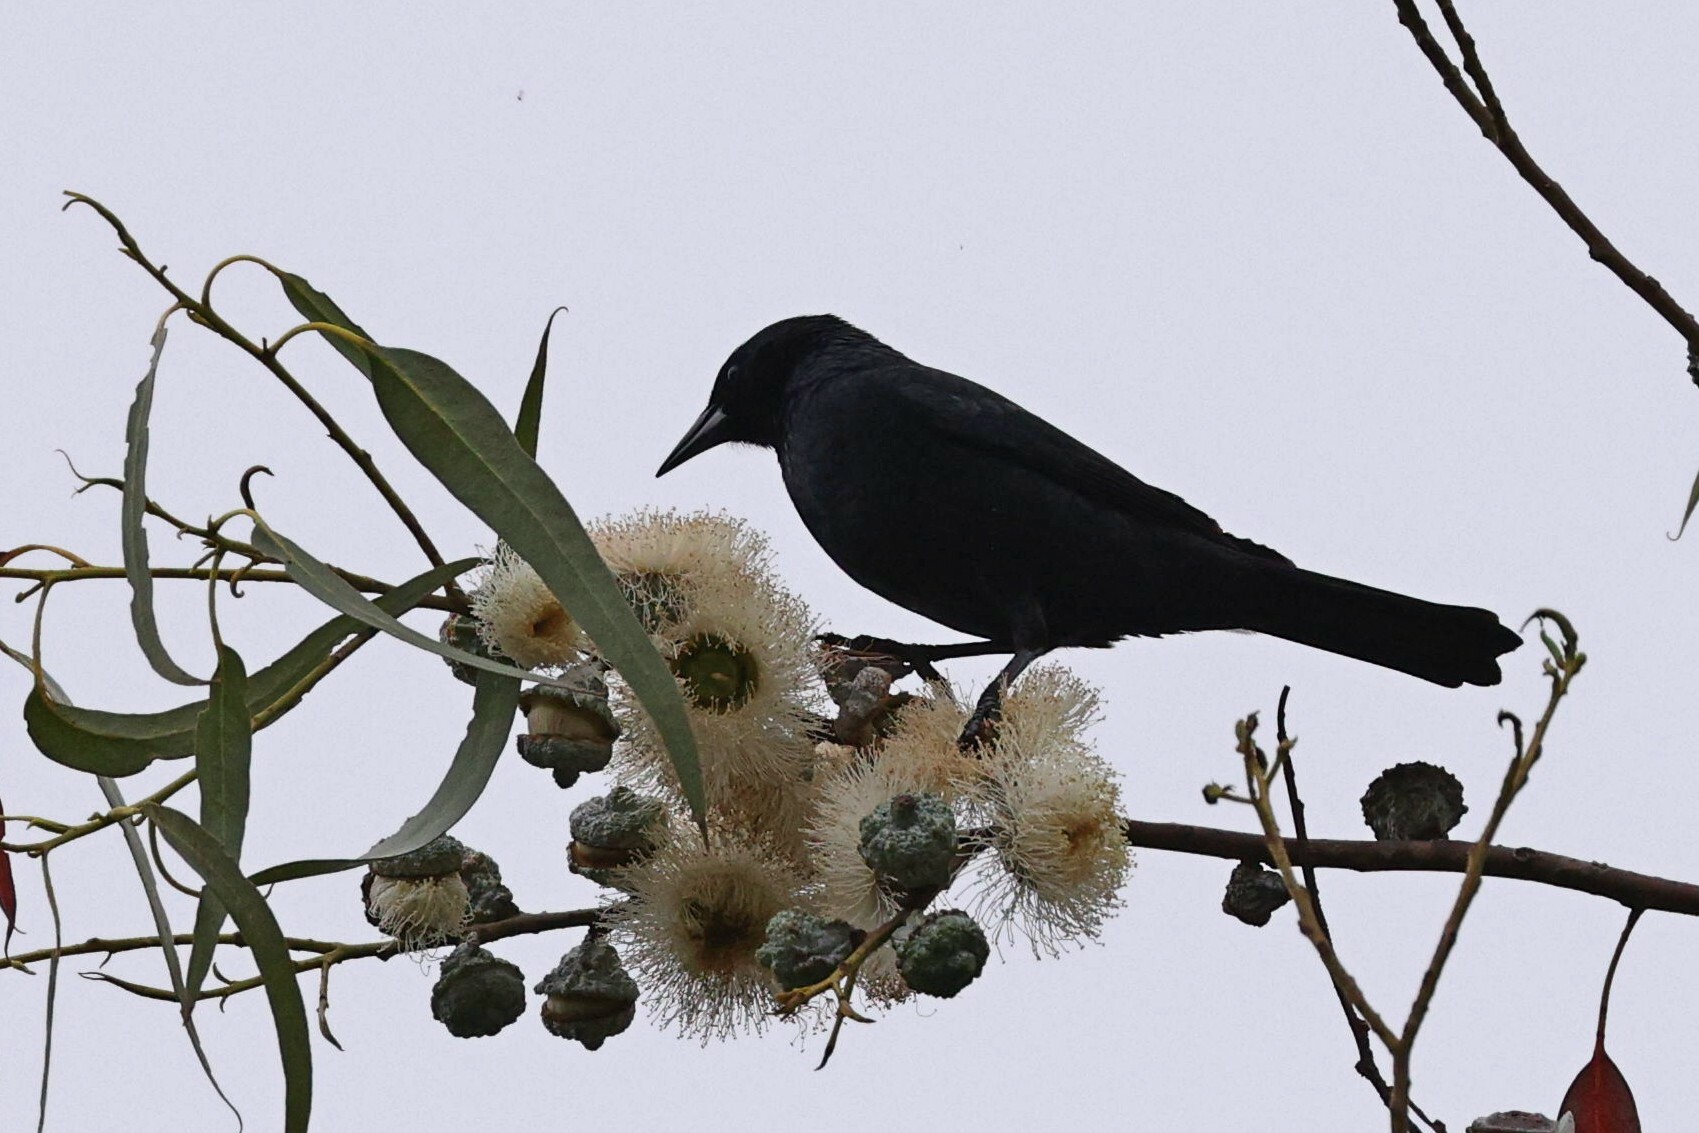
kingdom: Animalia
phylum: Chordata
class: Aves
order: Passeriformes
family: Icteridae
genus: Curaeus
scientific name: Curaeus curaeus
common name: Austral blackbird
